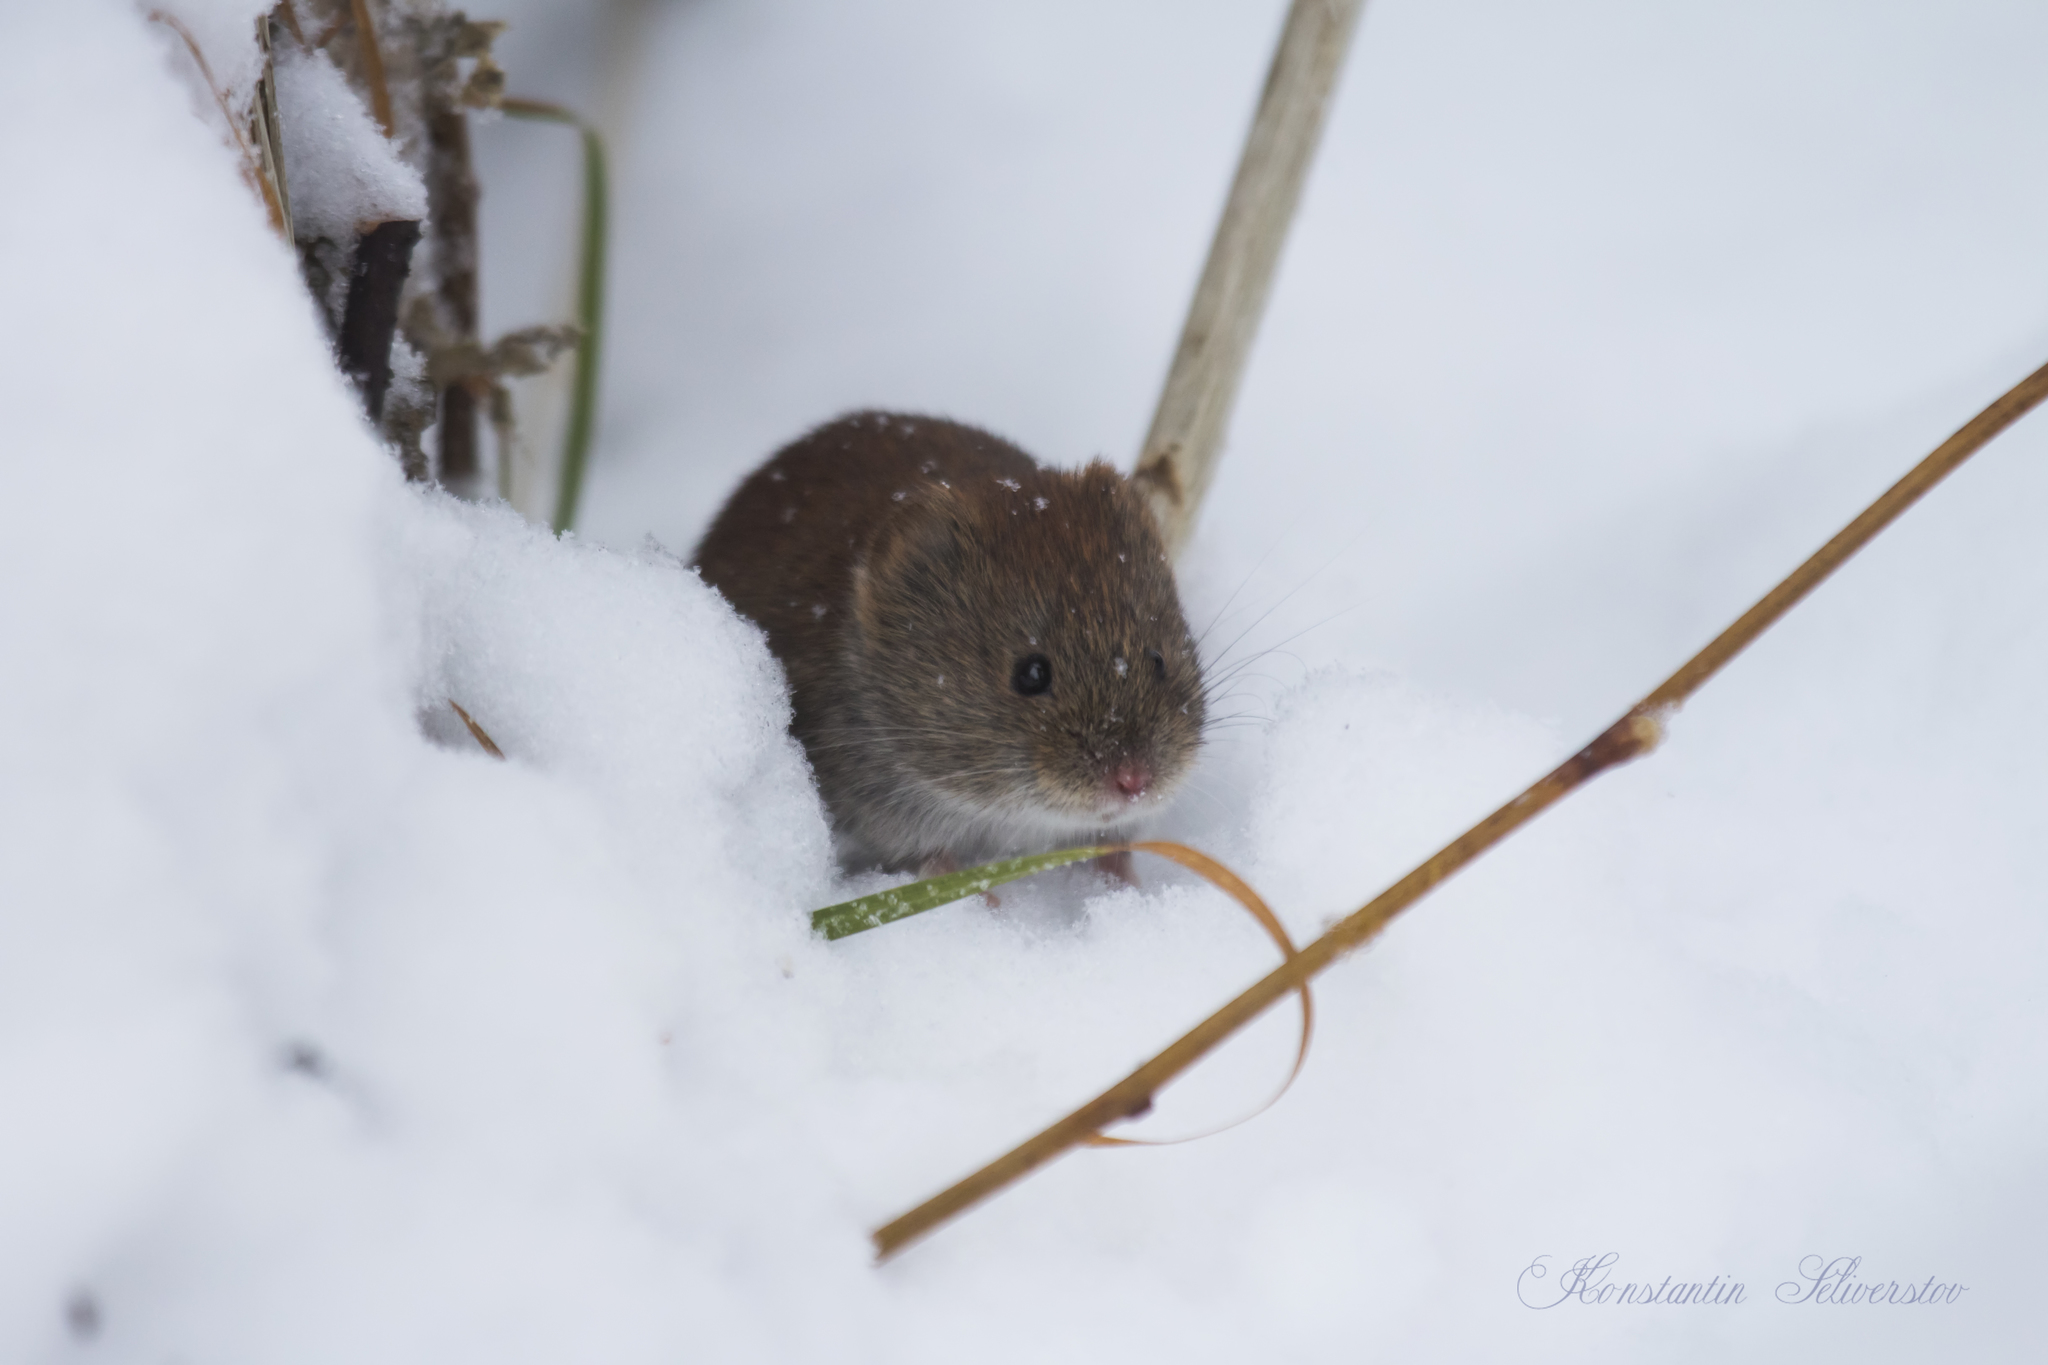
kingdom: Animalia
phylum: Chordata
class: Mammalia
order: Rodentia
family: Cricetidae
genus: Myodes
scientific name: Myodes glareolus
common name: Bank vole
